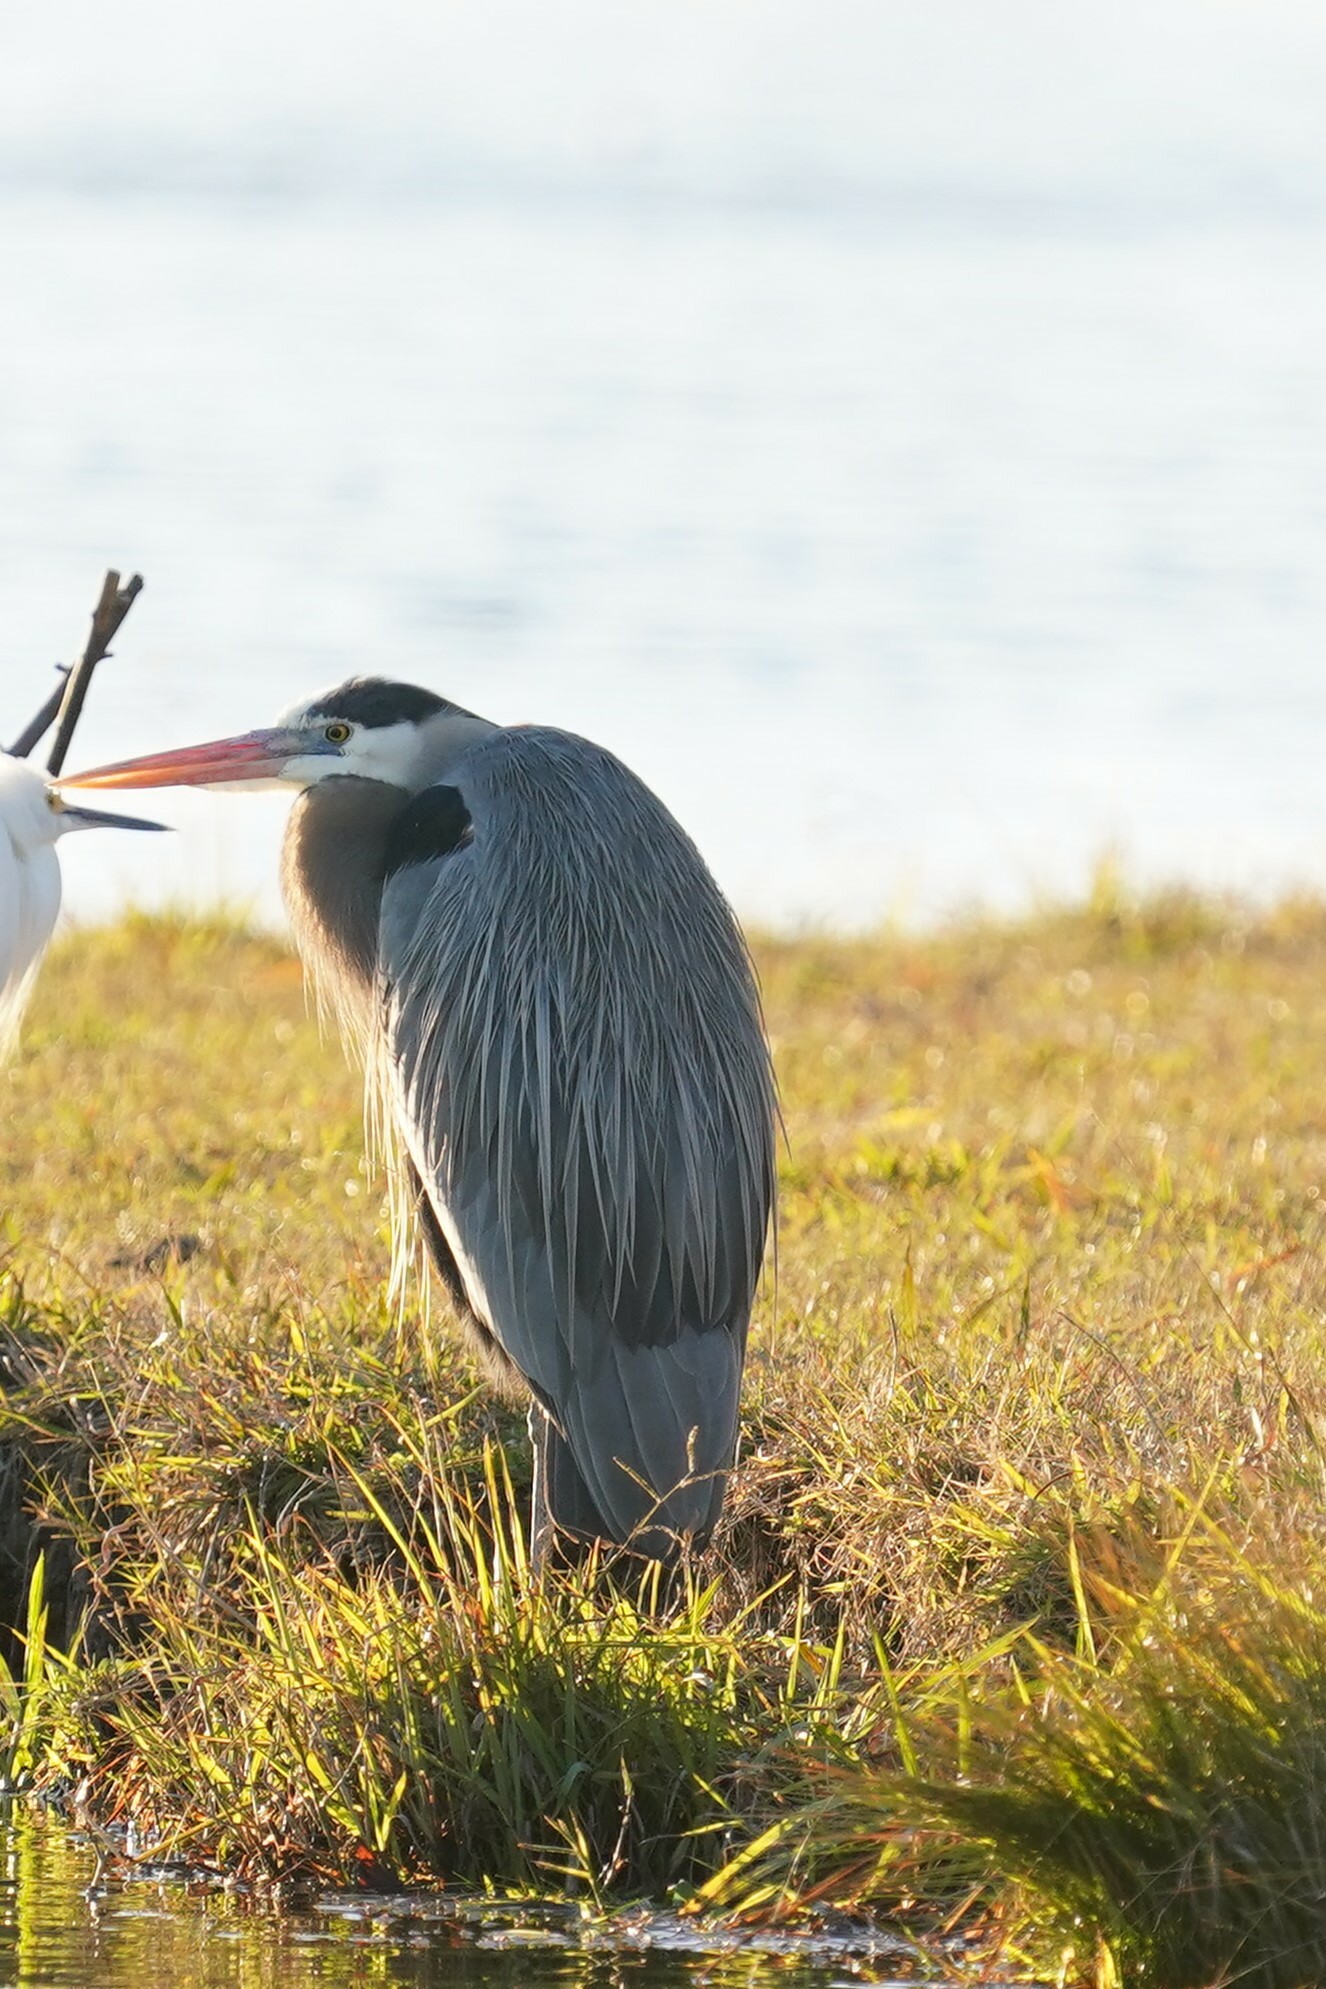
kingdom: Animalia
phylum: Chordata
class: Aves
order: Pelecaniformes
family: Ardeidae
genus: Ardea
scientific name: Ardea herodias
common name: Great blue heron
